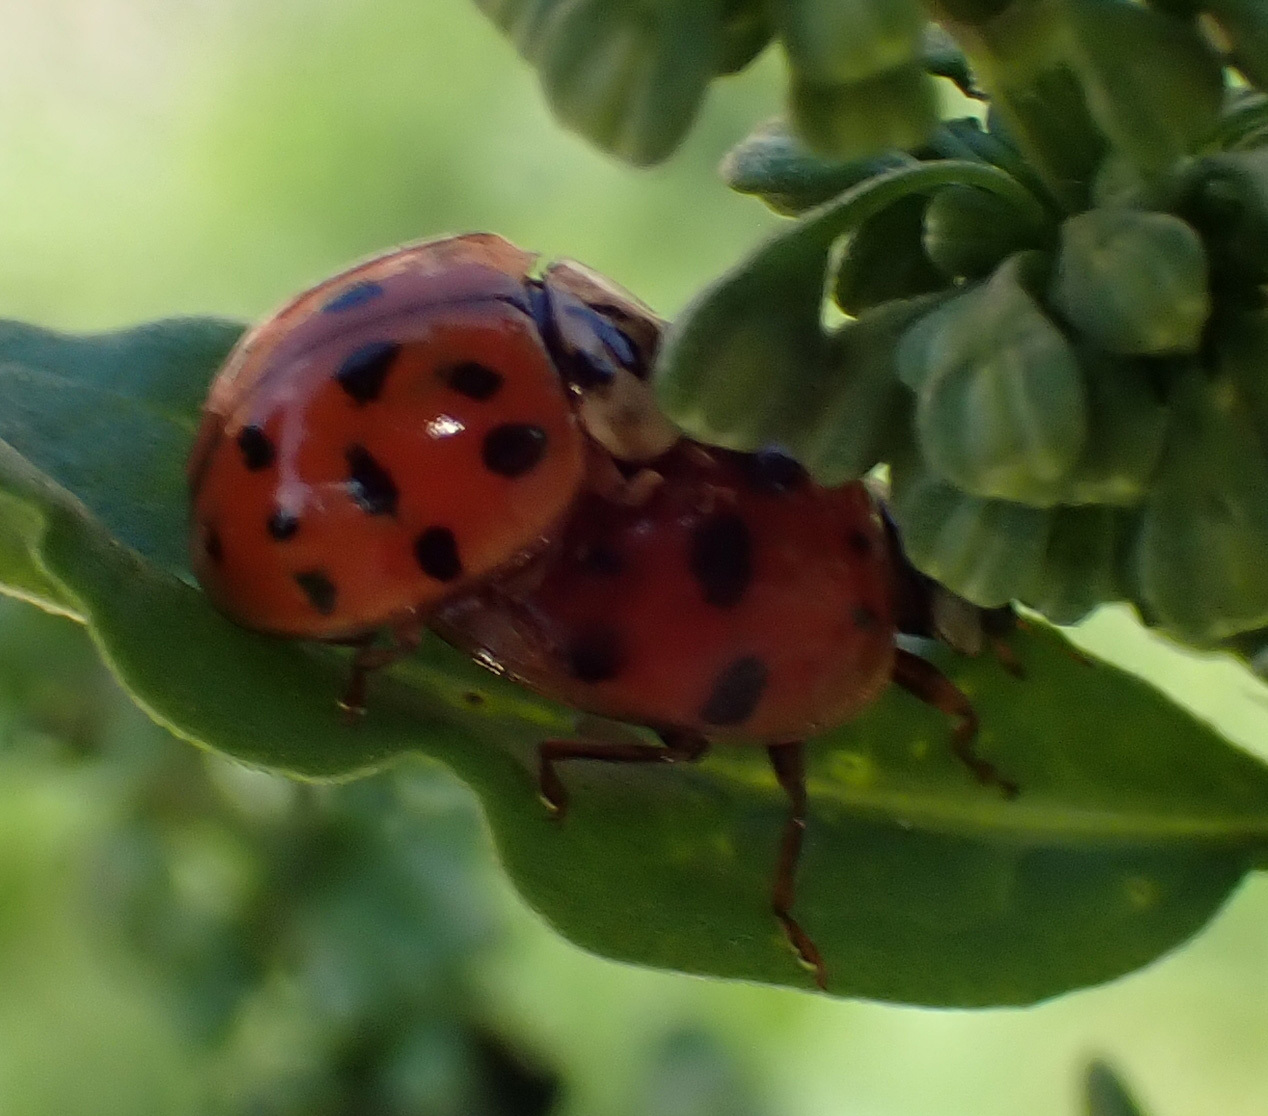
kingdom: Animalia
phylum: Arthropoda
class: Insecta
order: Coleoptera
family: Coccinellidae
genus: Harmonia
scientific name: Harmonia axyridis
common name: Harlequin ladybird
